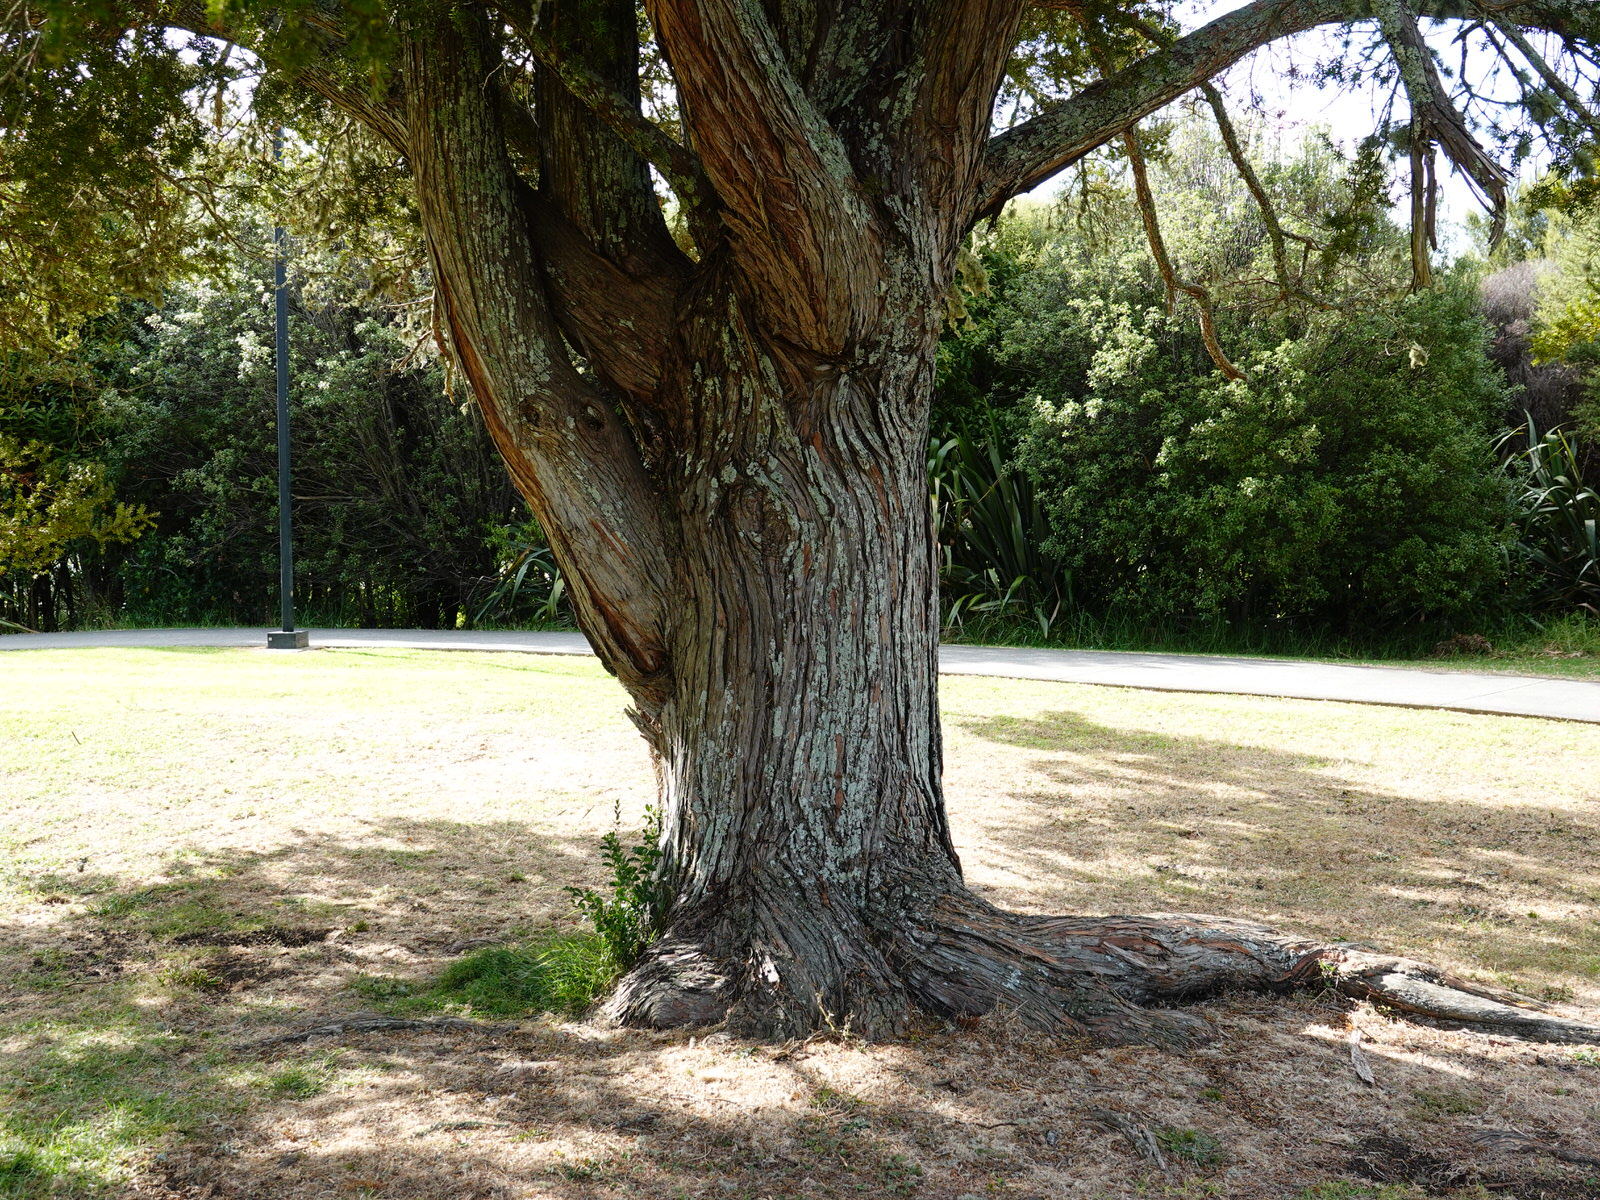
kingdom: Plantae
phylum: Tracheophyta
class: Pinopsida
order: Pinales
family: Podocarpaceae
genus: Podocarpus
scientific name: Podocarpus totara
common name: Totara
